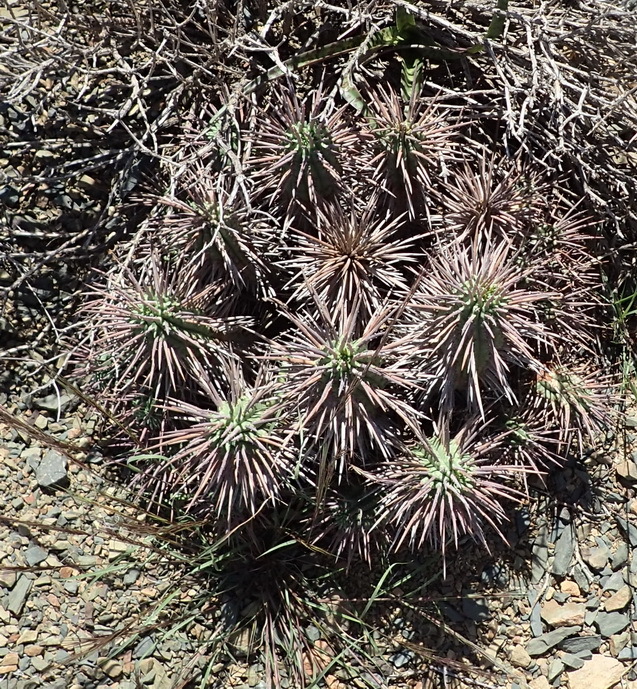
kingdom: Plantae
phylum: Tracheophyta
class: Magnoliopsida
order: Malpighiales
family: Euphorbiaceae
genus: Euphorbia
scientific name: Euphorbia ferox
